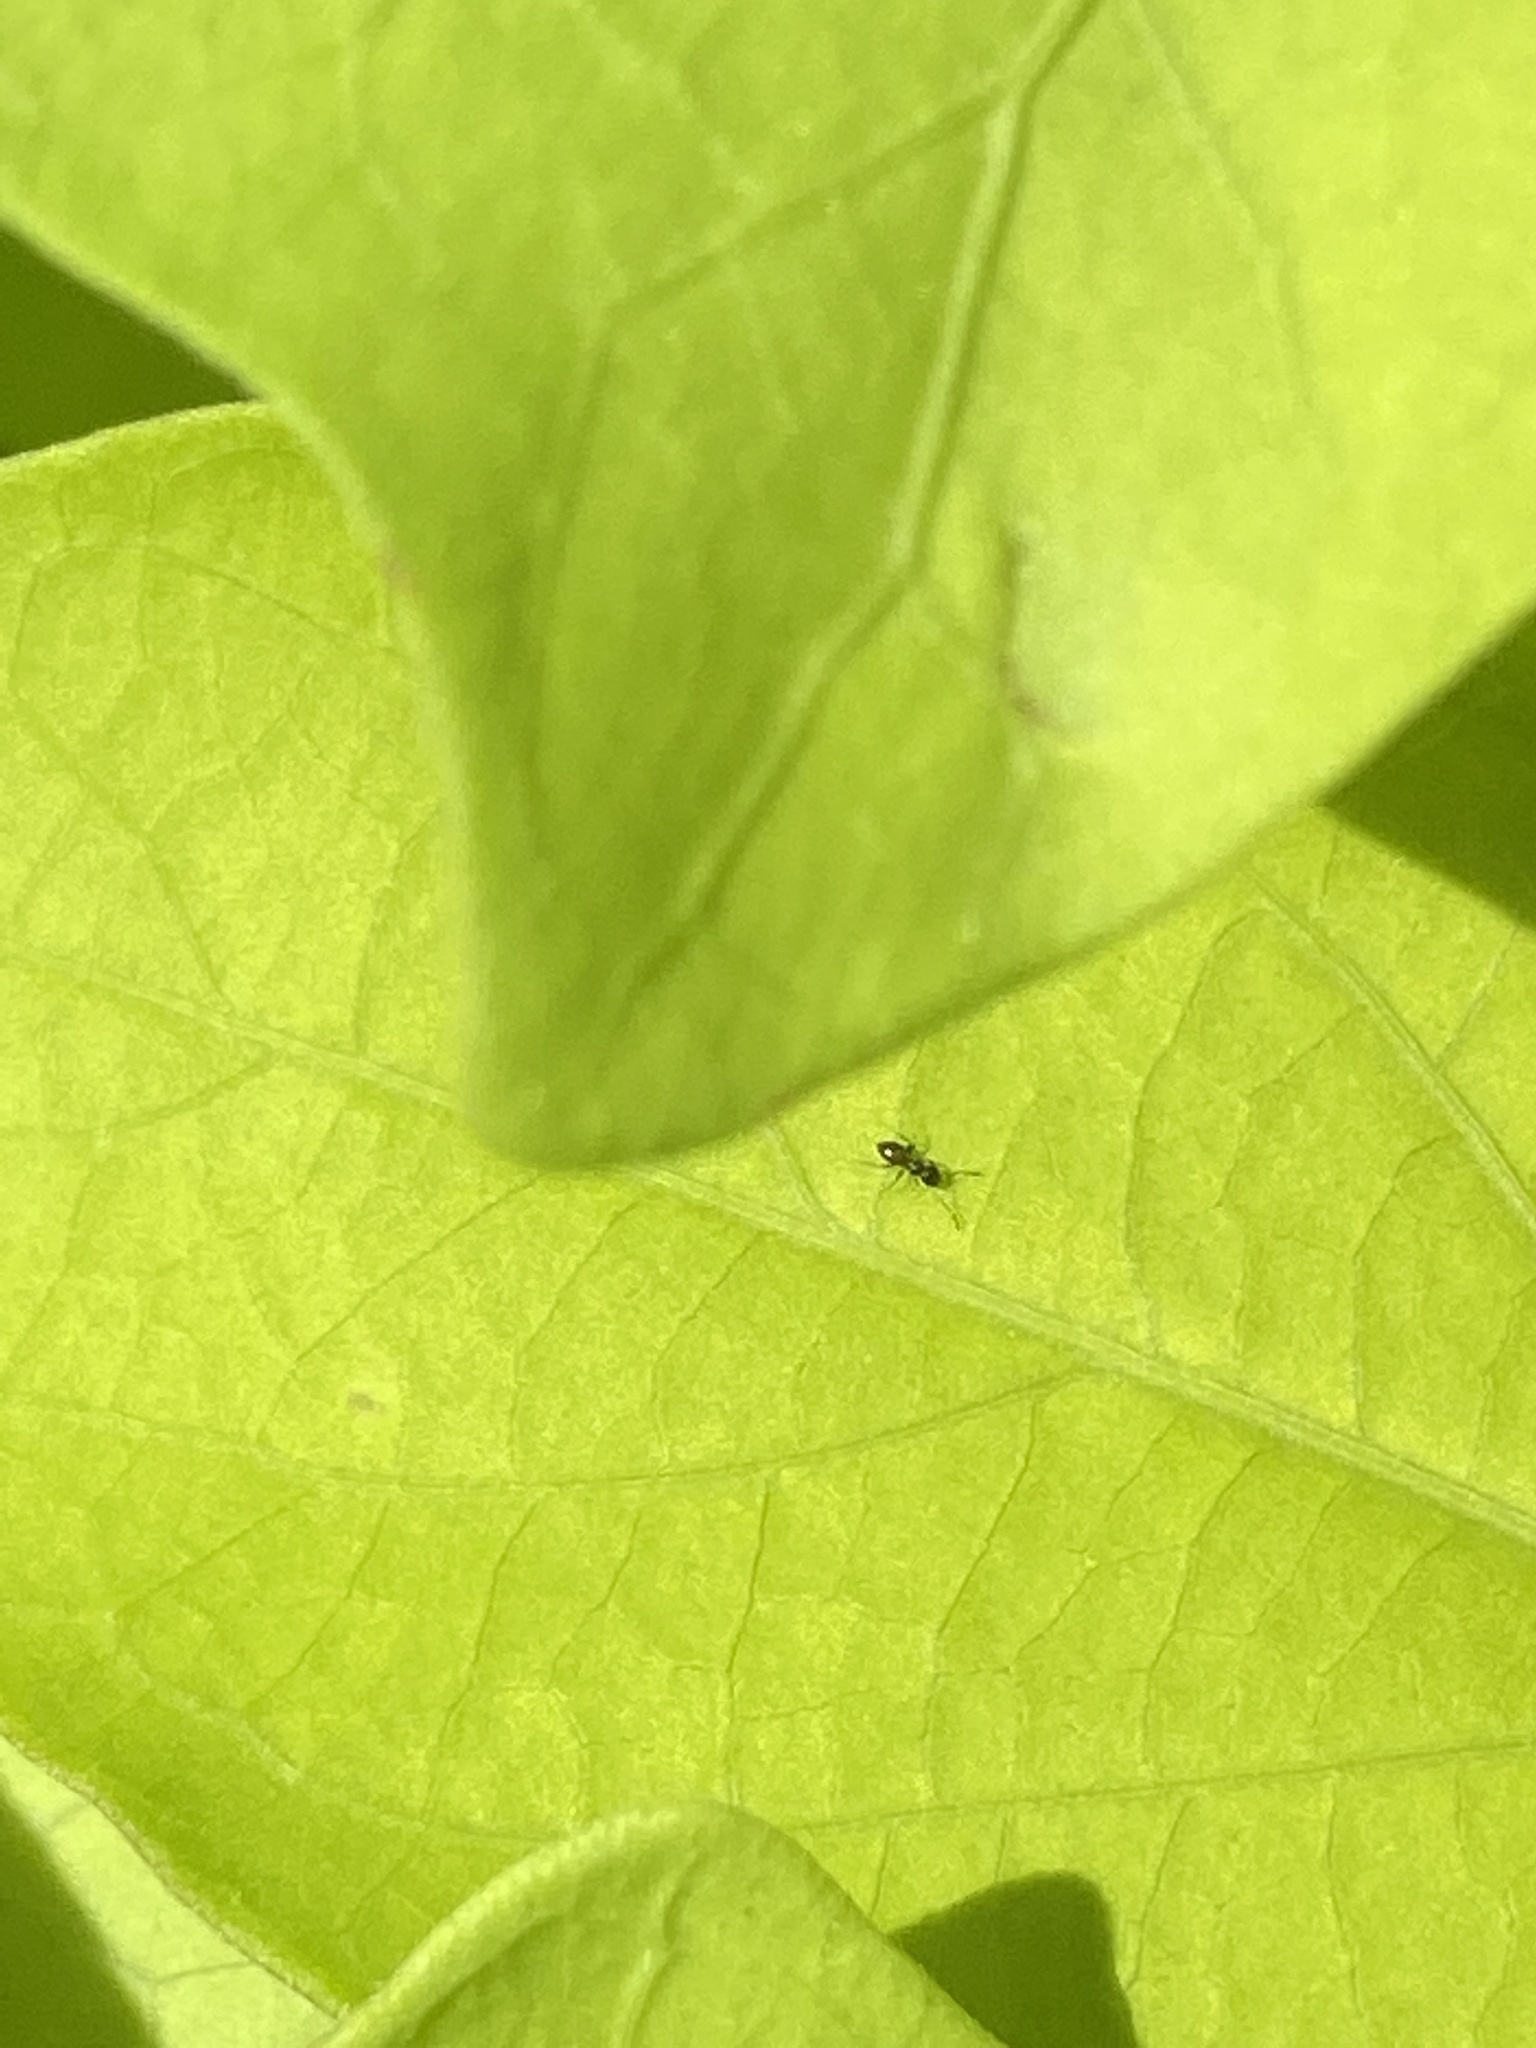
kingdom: Animalia
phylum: Arthropoda
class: Insecta
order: Hymenoptera
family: Formicidae
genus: Brachymyrmex
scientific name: Brachymyrmex patagonicus
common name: Dark rover ant
